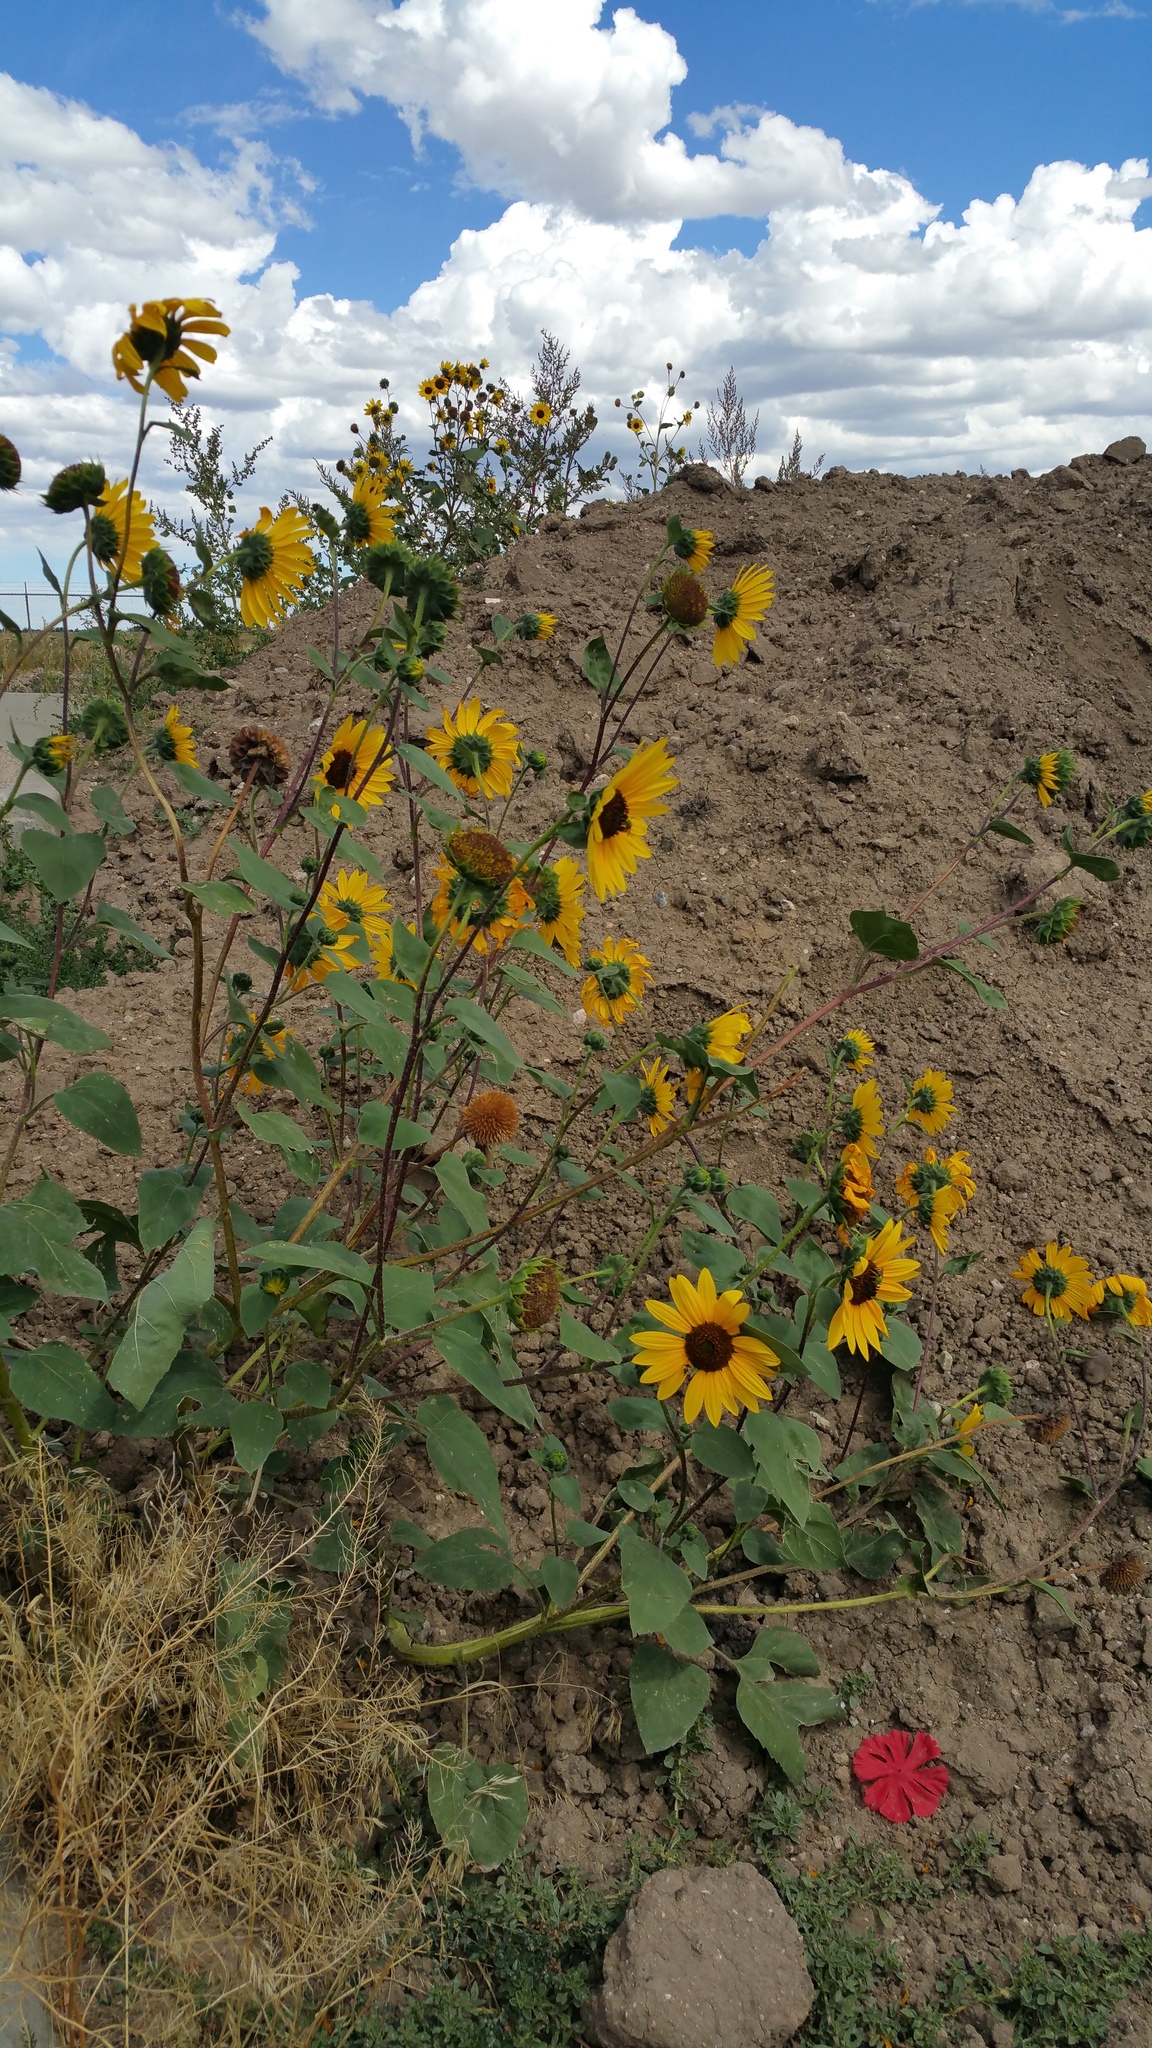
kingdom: Plantae
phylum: Tracheophyta
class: Magnoliopsida
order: Asterales
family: Asteraceae
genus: Helianthus
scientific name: Helianthus annuus
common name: Sunflower
